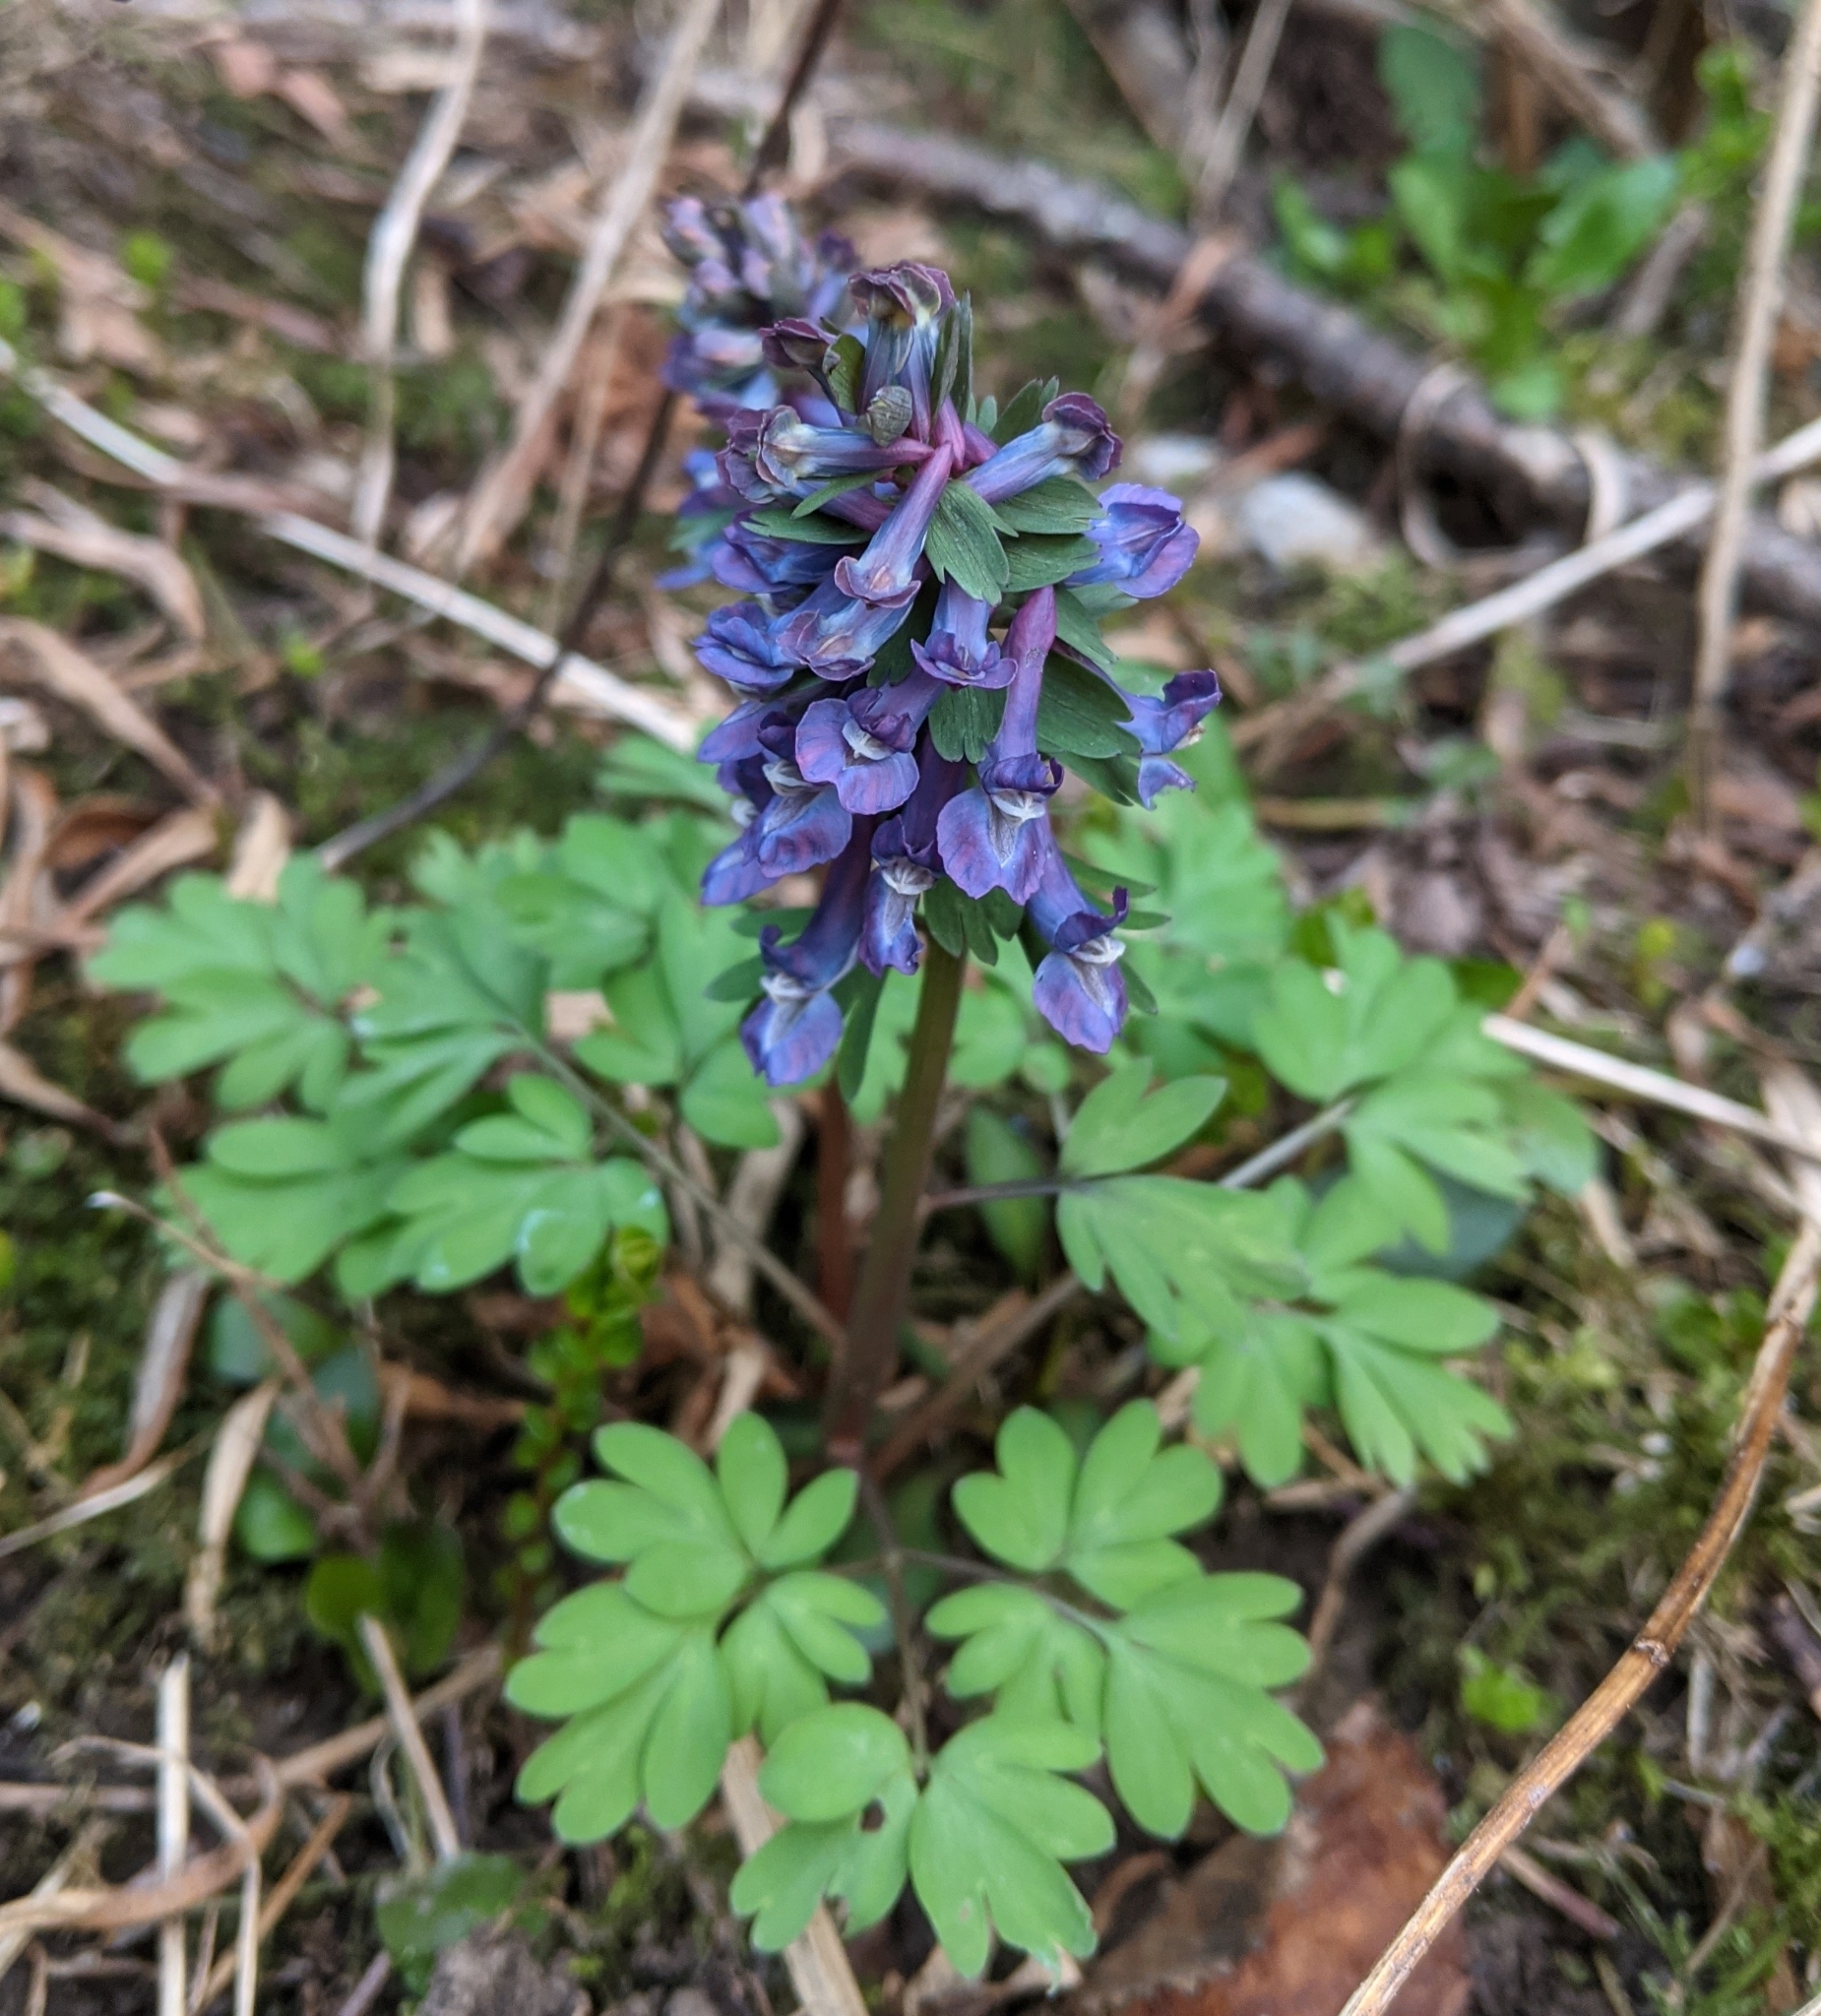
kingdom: Plantae
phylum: Tracheophyta
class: Magnoliopsida
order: Ranunculales
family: Papaveraceae
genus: Corydalis
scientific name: Corydalis solida
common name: Bird-in-a-bush
